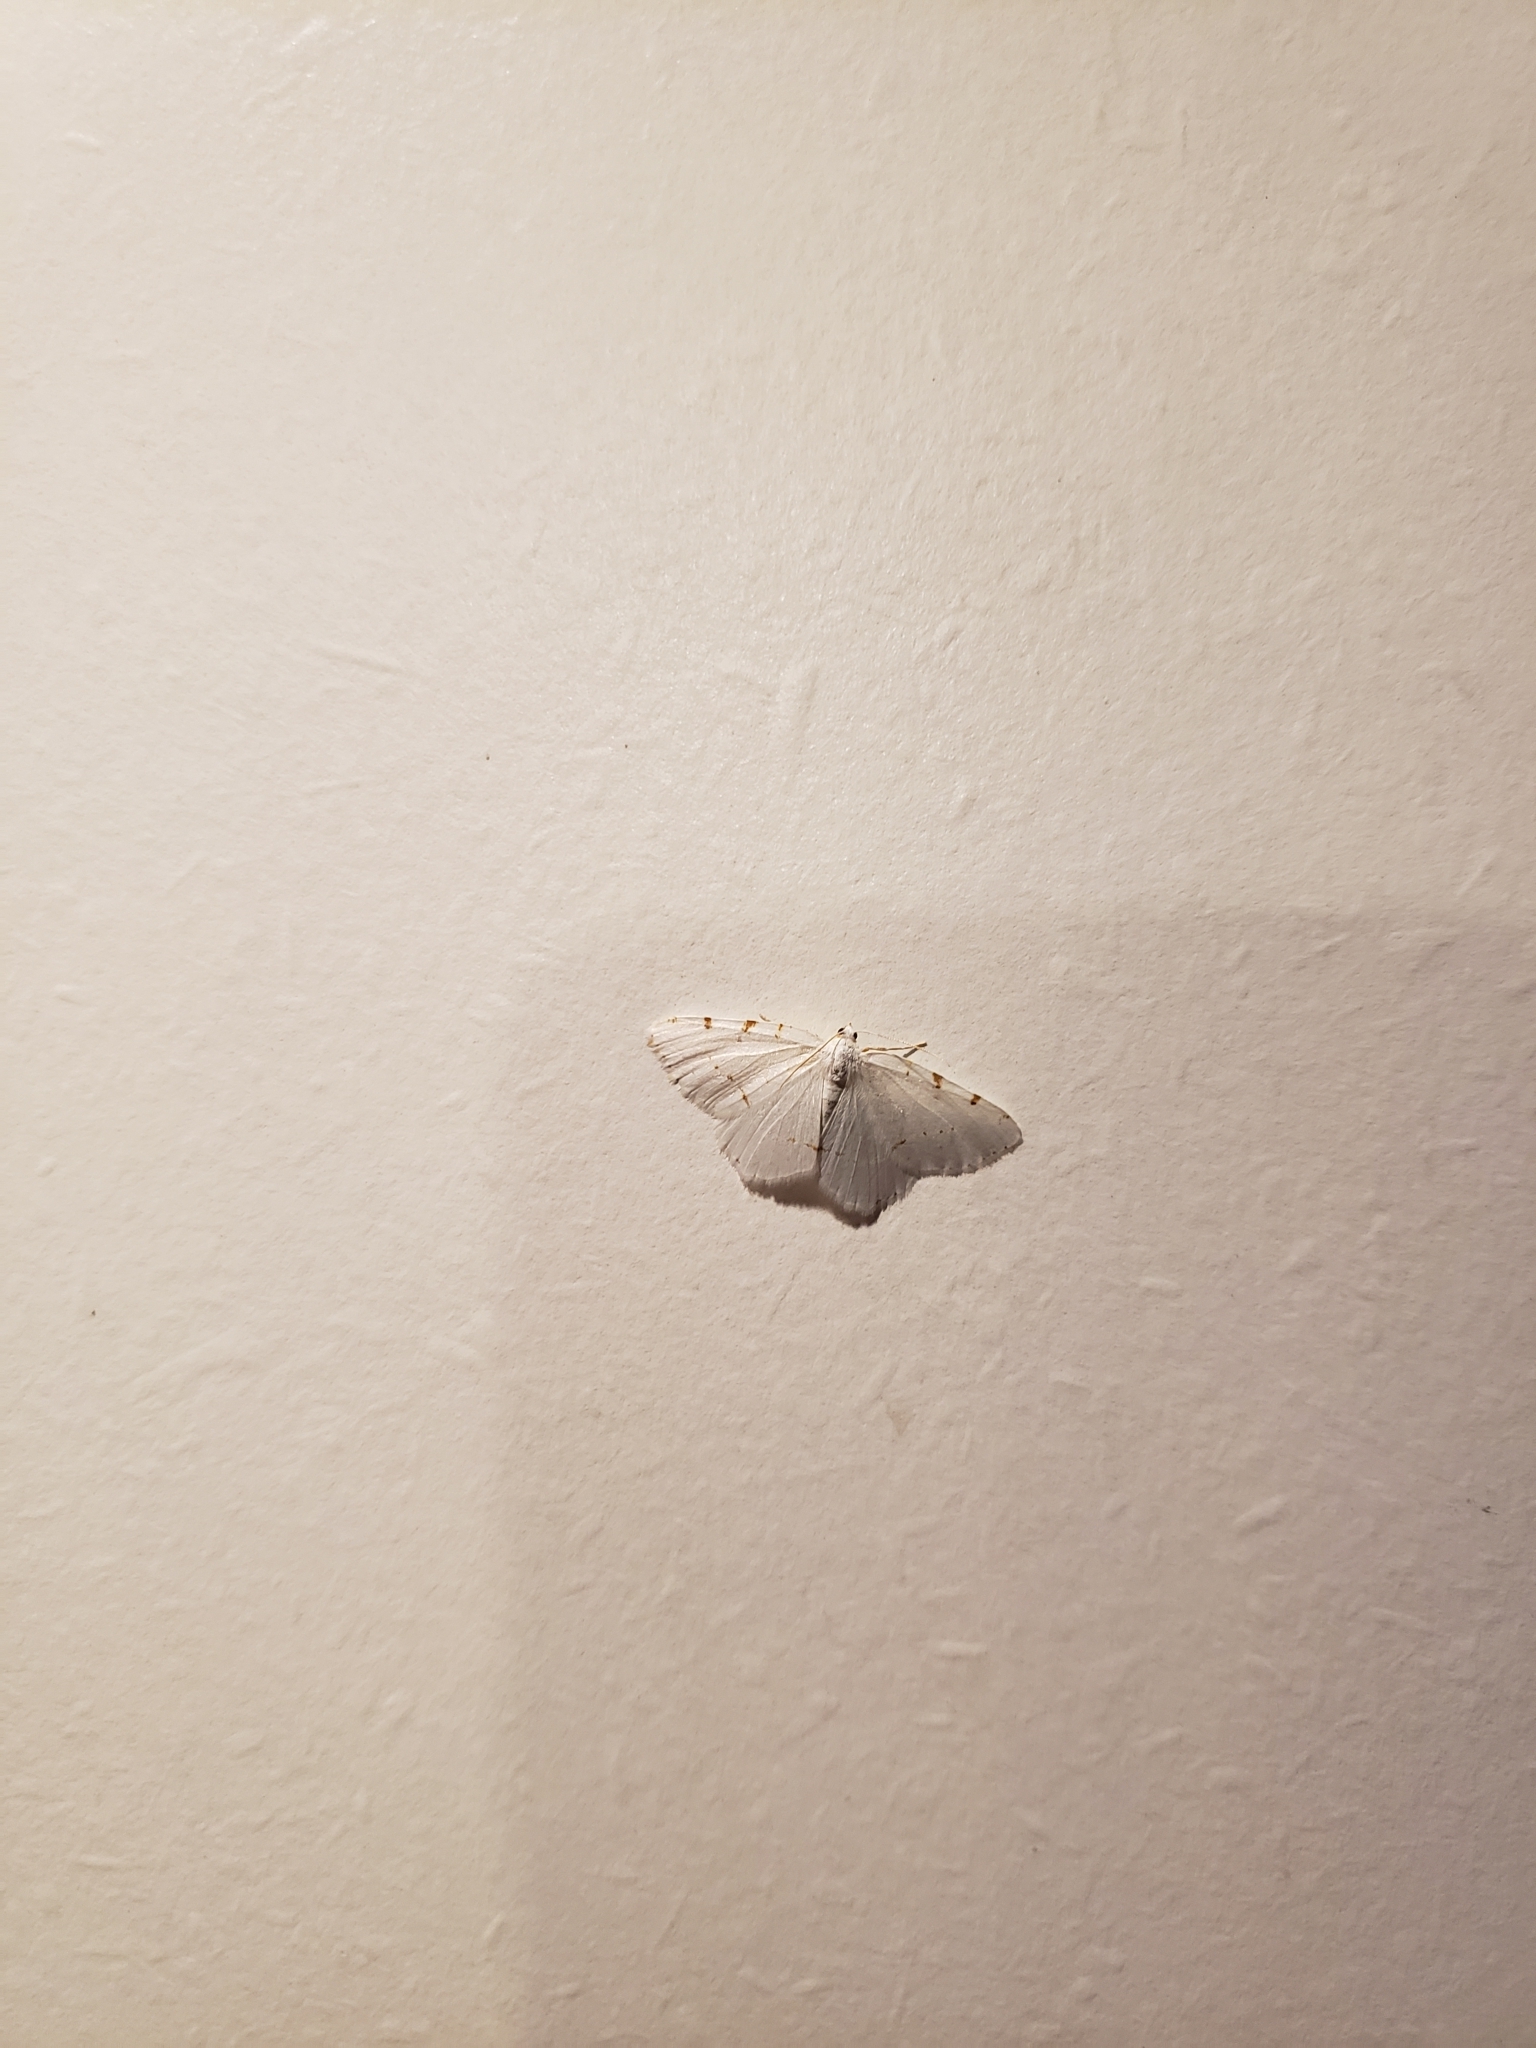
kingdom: Animalia
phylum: Arthropoda
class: Insecta
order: Lepidoptera
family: Geometridae
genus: Macaria
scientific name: Macaria pustularia
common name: Lesser maple spanworm moth
